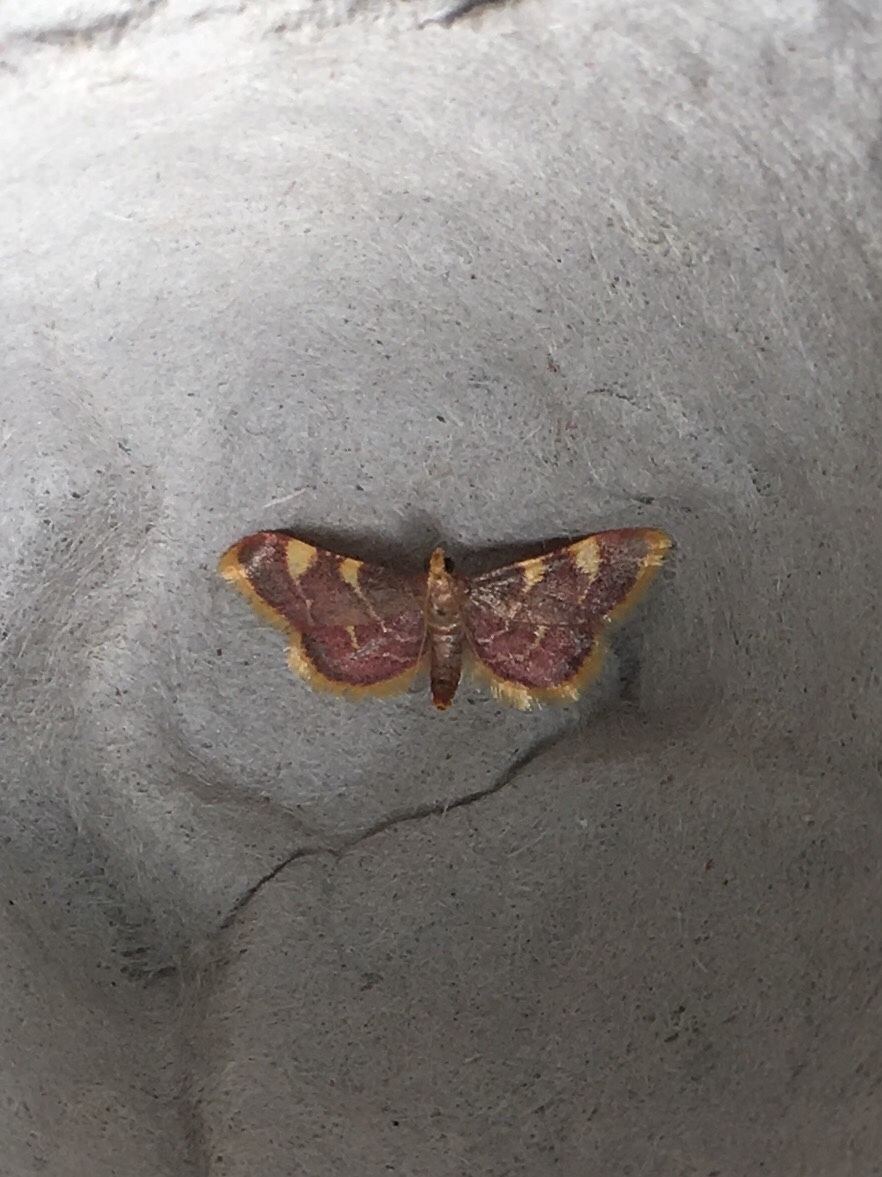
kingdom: Animalia
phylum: Arthropoda
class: Insecta
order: Lepidoptera
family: Pyralidae
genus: Hypsopygia
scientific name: Hypsopygia costalis
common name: Gold triangle
